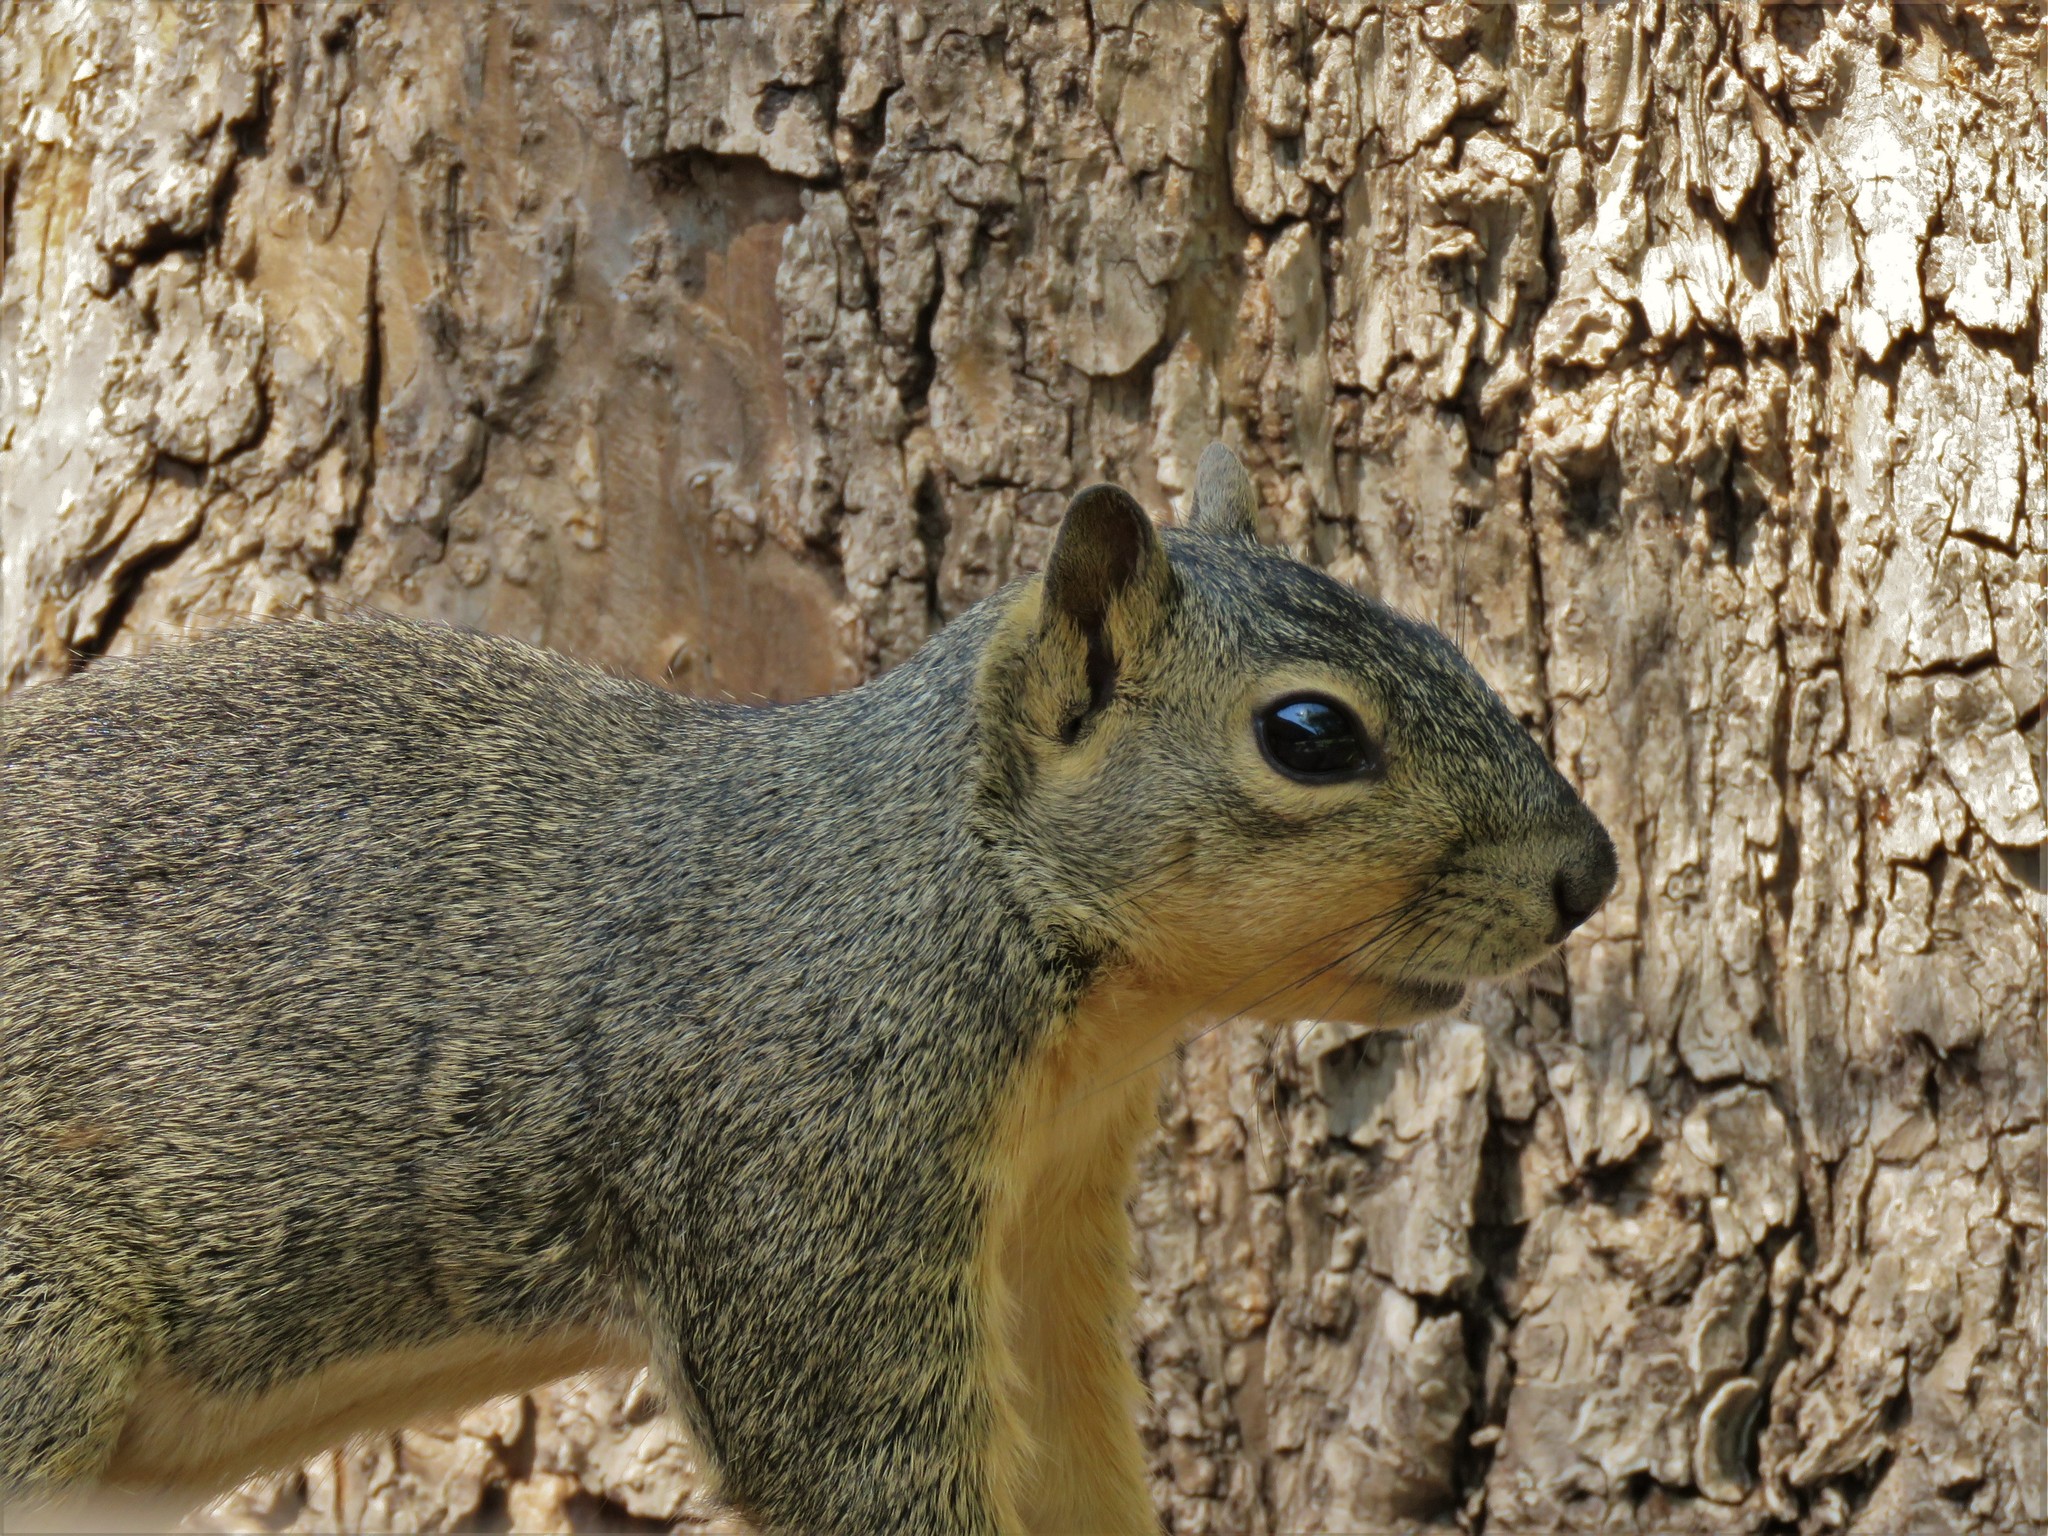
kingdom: Animalia
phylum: Chordata
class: Mammalia
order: Rodentia
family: Sciuridae
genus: Sciurus
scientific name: Sciurus niger
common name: Fox squirrel
